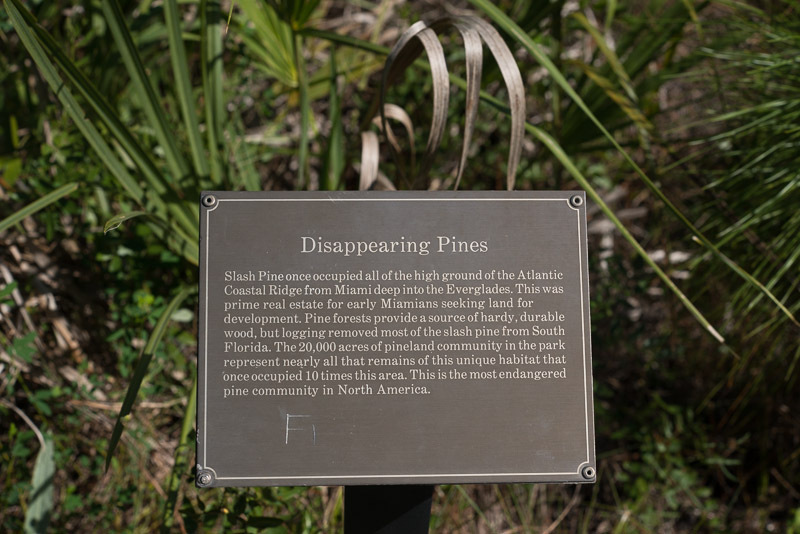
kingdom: Plantae
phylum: Tracheophyta
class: Pinopsida
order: Pinales
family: Pinaceae
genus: Pinus
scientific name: Pinus elliottii
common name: Slash pine
